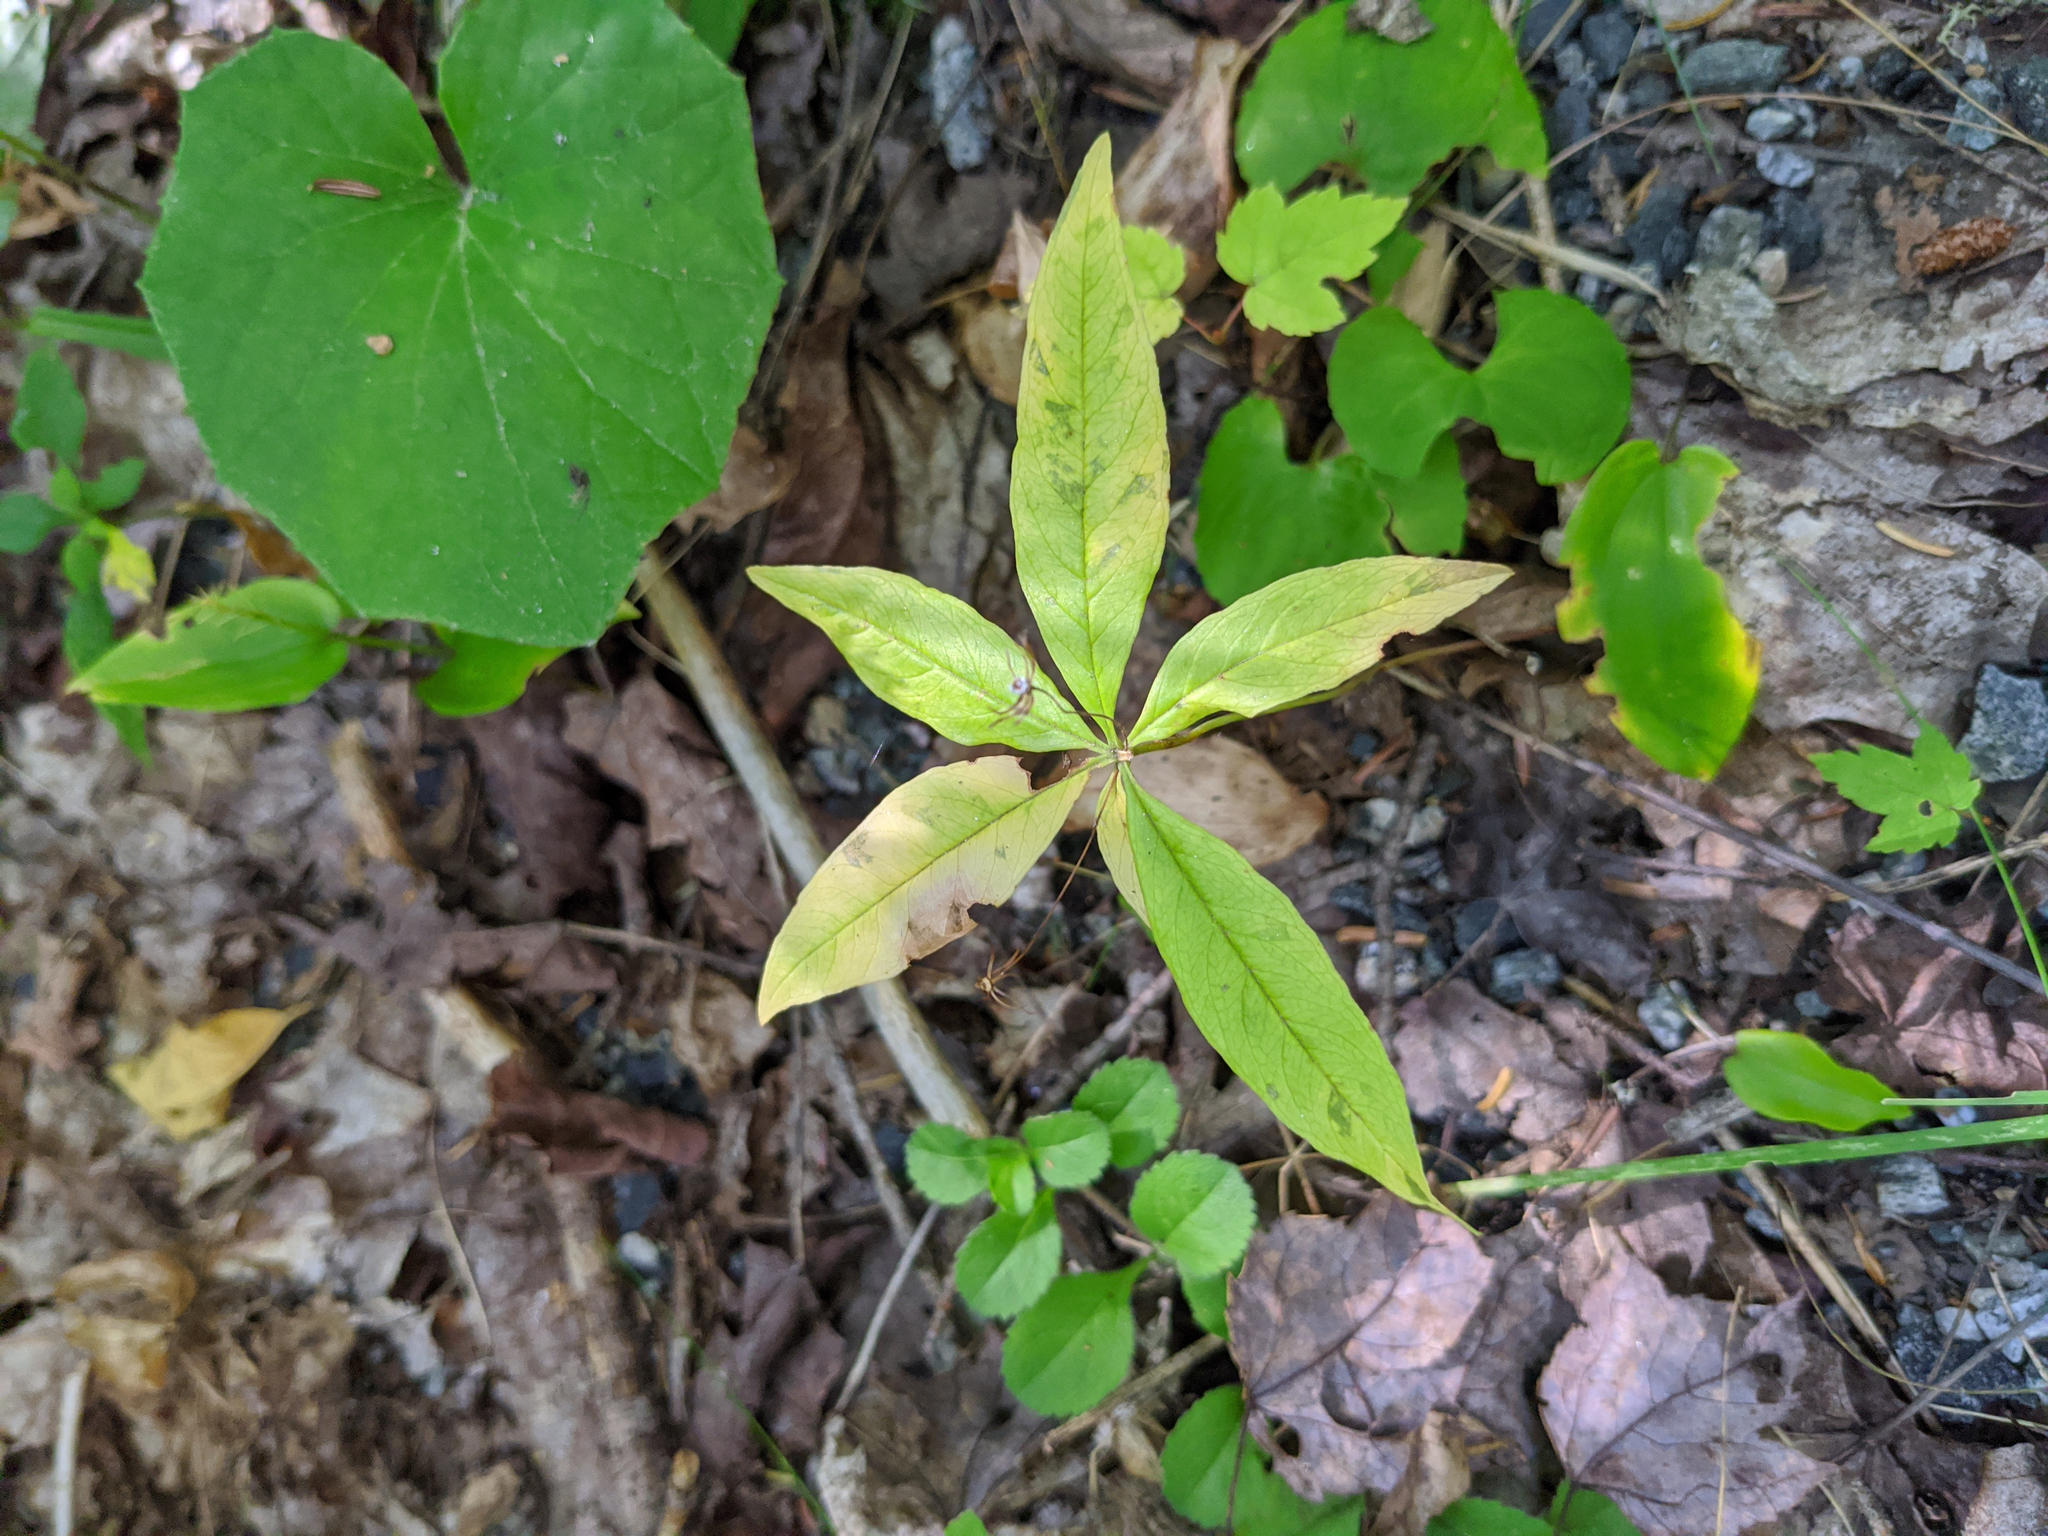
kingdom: Plantae
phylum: Tracheophyta
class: Magnoliopsida
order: Ericales
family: Primulaceae
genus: Lysimachia
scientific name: Lysimachia borealis
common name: American starflower
